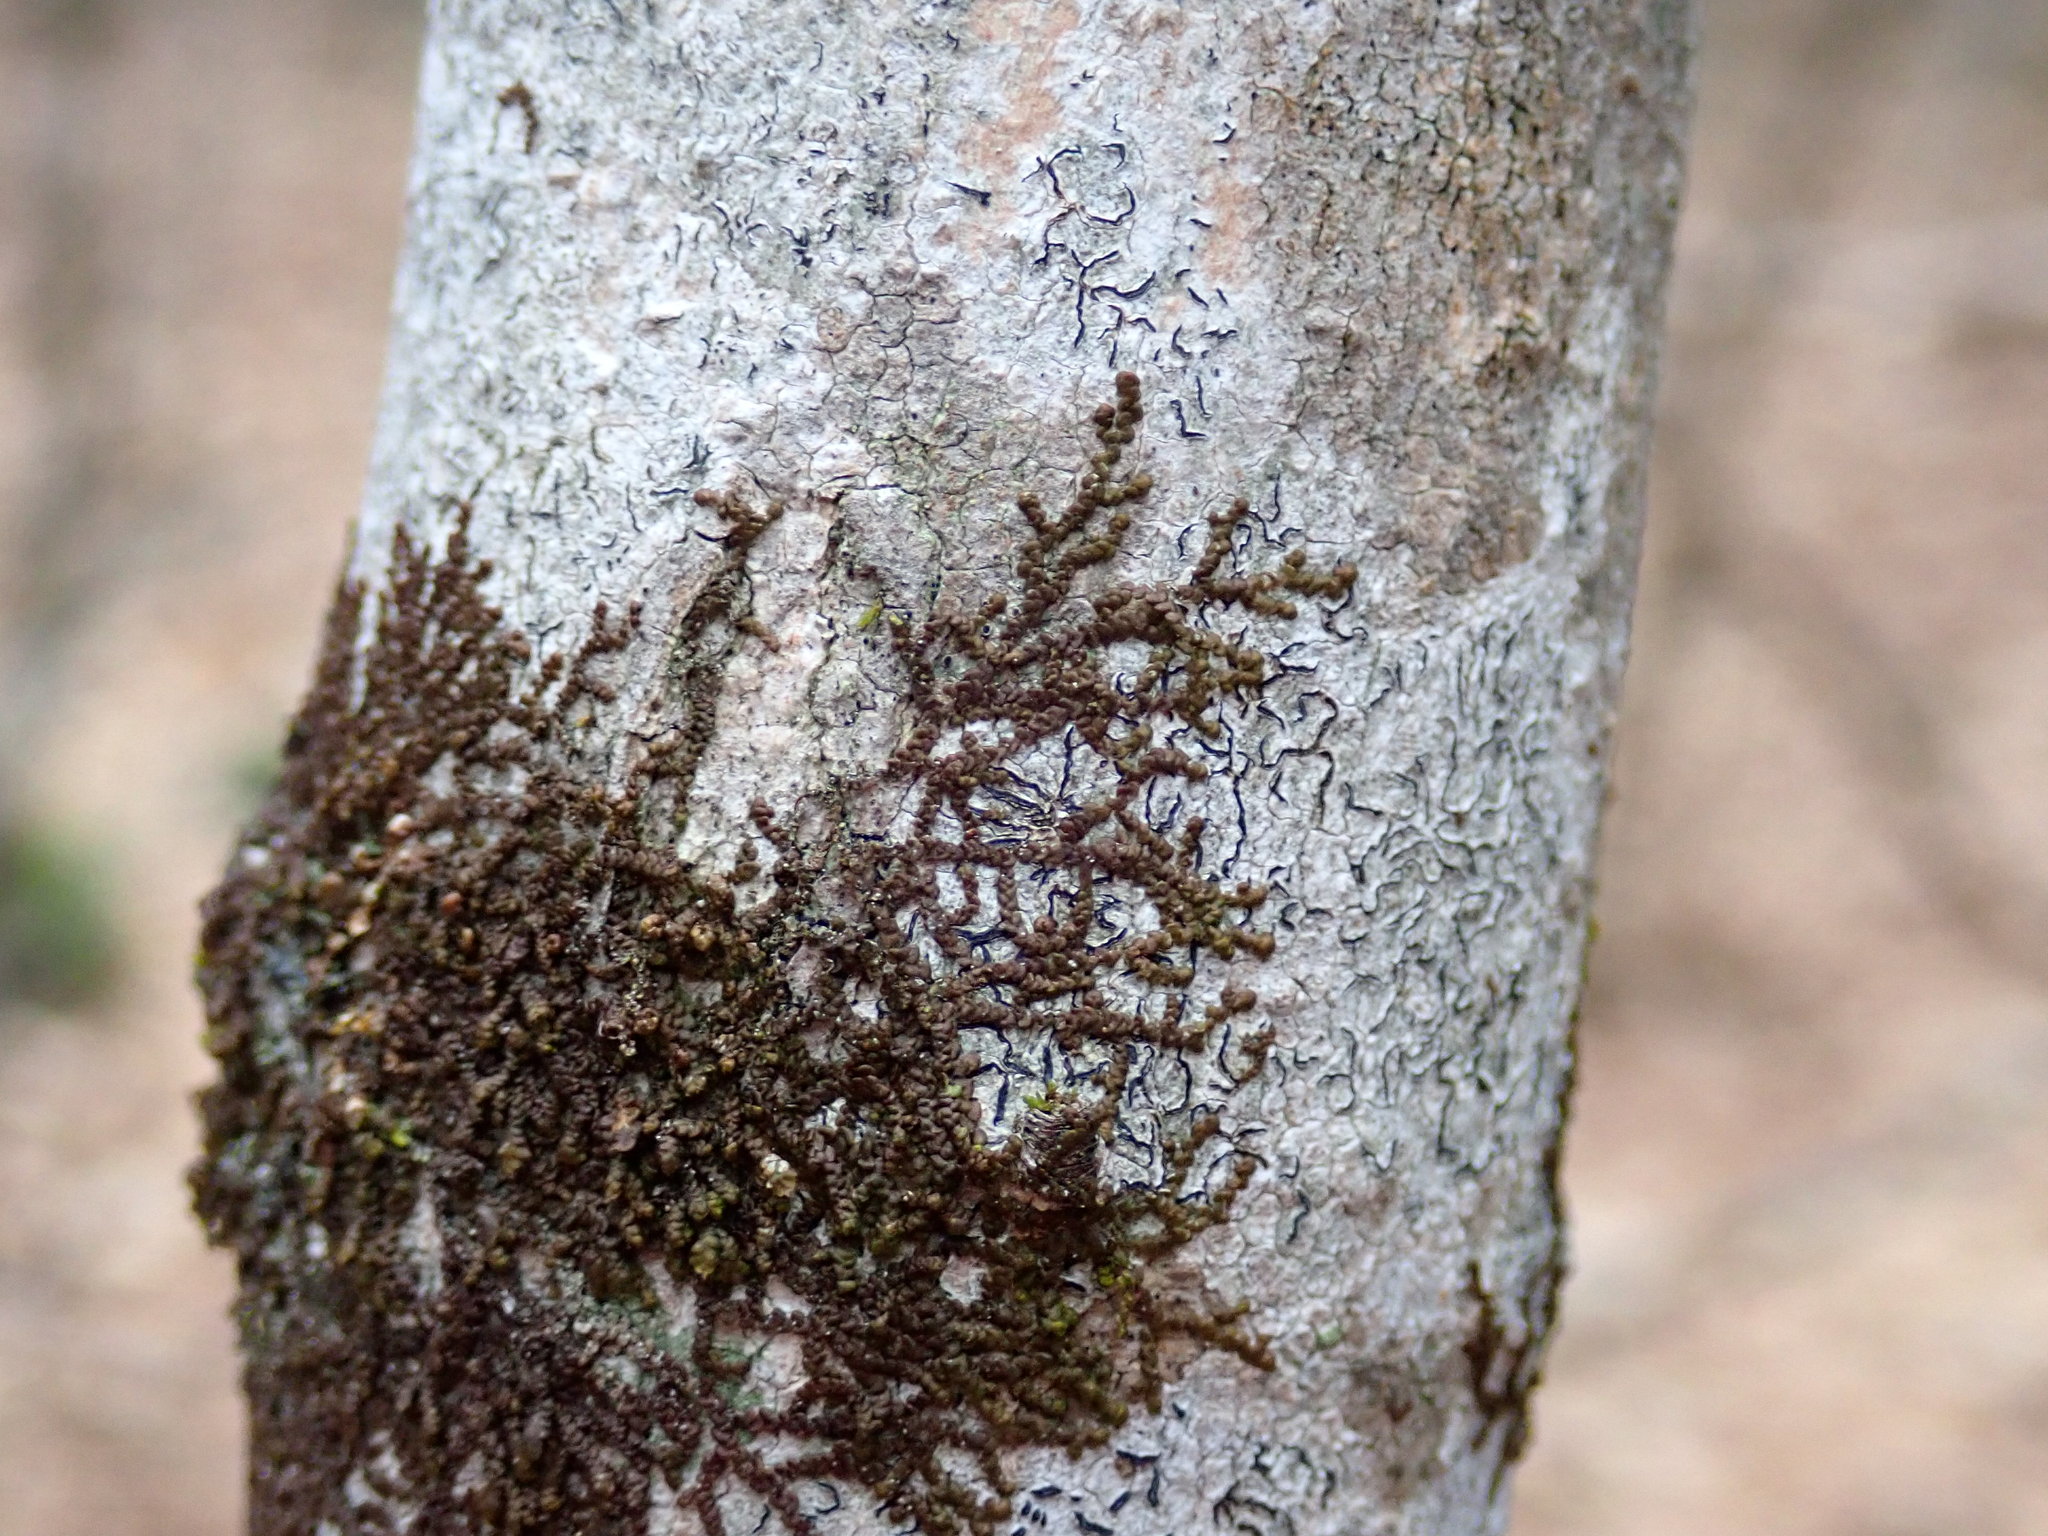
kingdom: Plantae
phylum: Marchantiophyta
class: Jungermanniopsida
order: Porellales
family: Frullaniaceae
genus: Frullania
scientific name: Frullania
